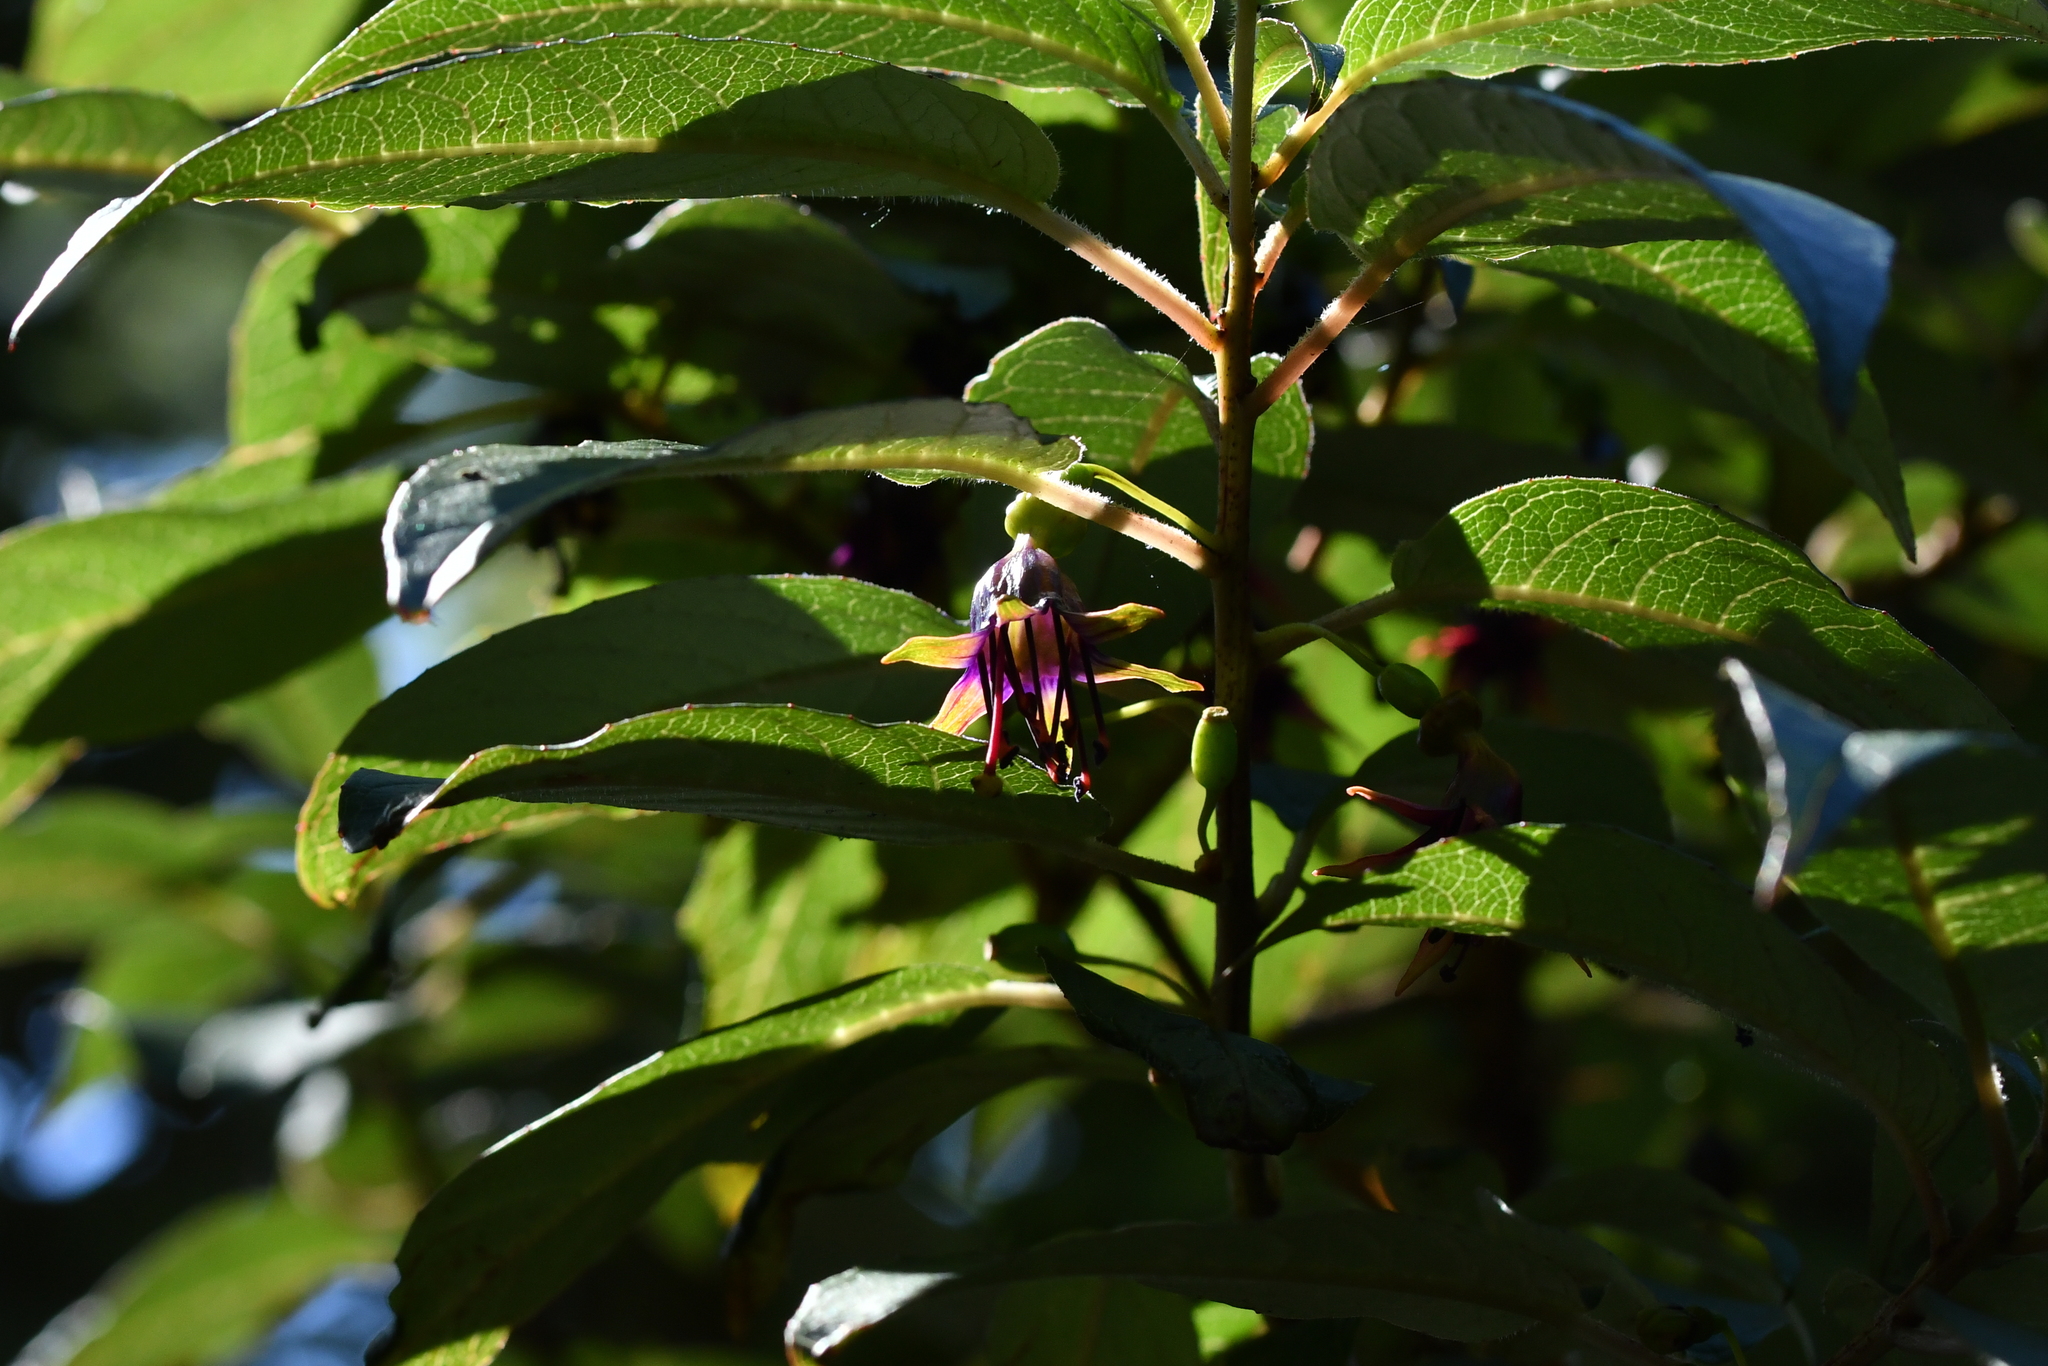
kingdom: Plantae
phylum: Tracheophyta
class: Magnoliopsida
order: Myrtales
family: Onagraceae
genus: Fuchsia
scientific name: Fuchsia excorticata
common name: Tree fuchsia
